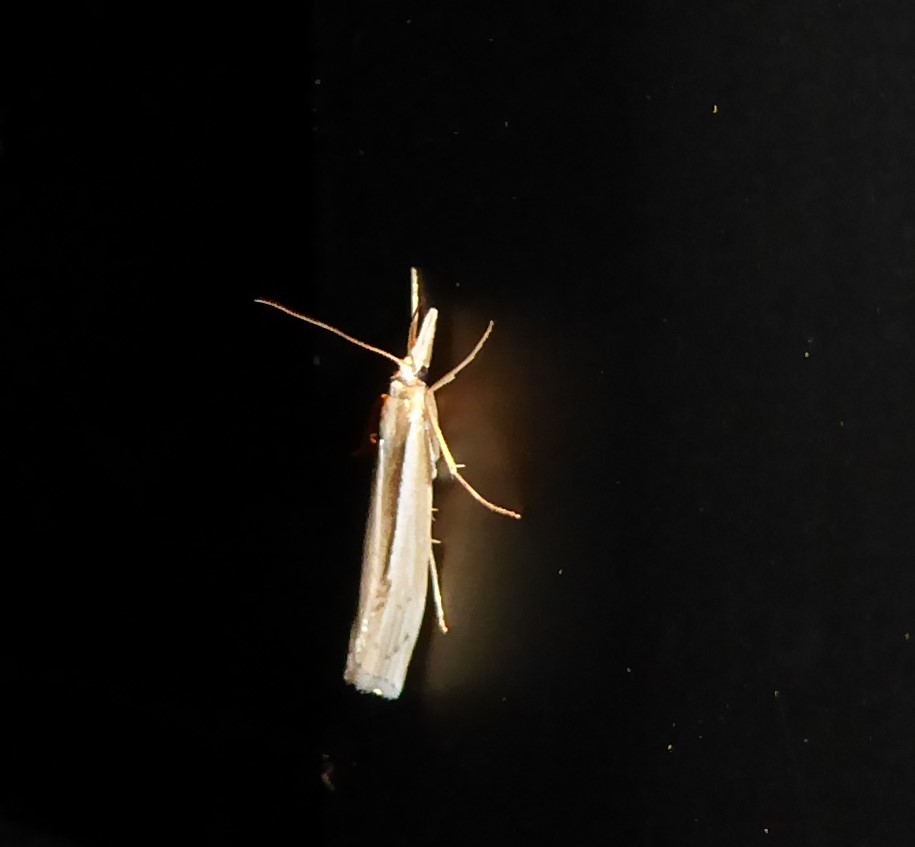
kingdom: Animalia
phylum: Arthropoda
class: Insecta
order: Lepidoptera
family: Crambidae
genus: Orocrambus
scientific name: Orocrambus ramosellus
